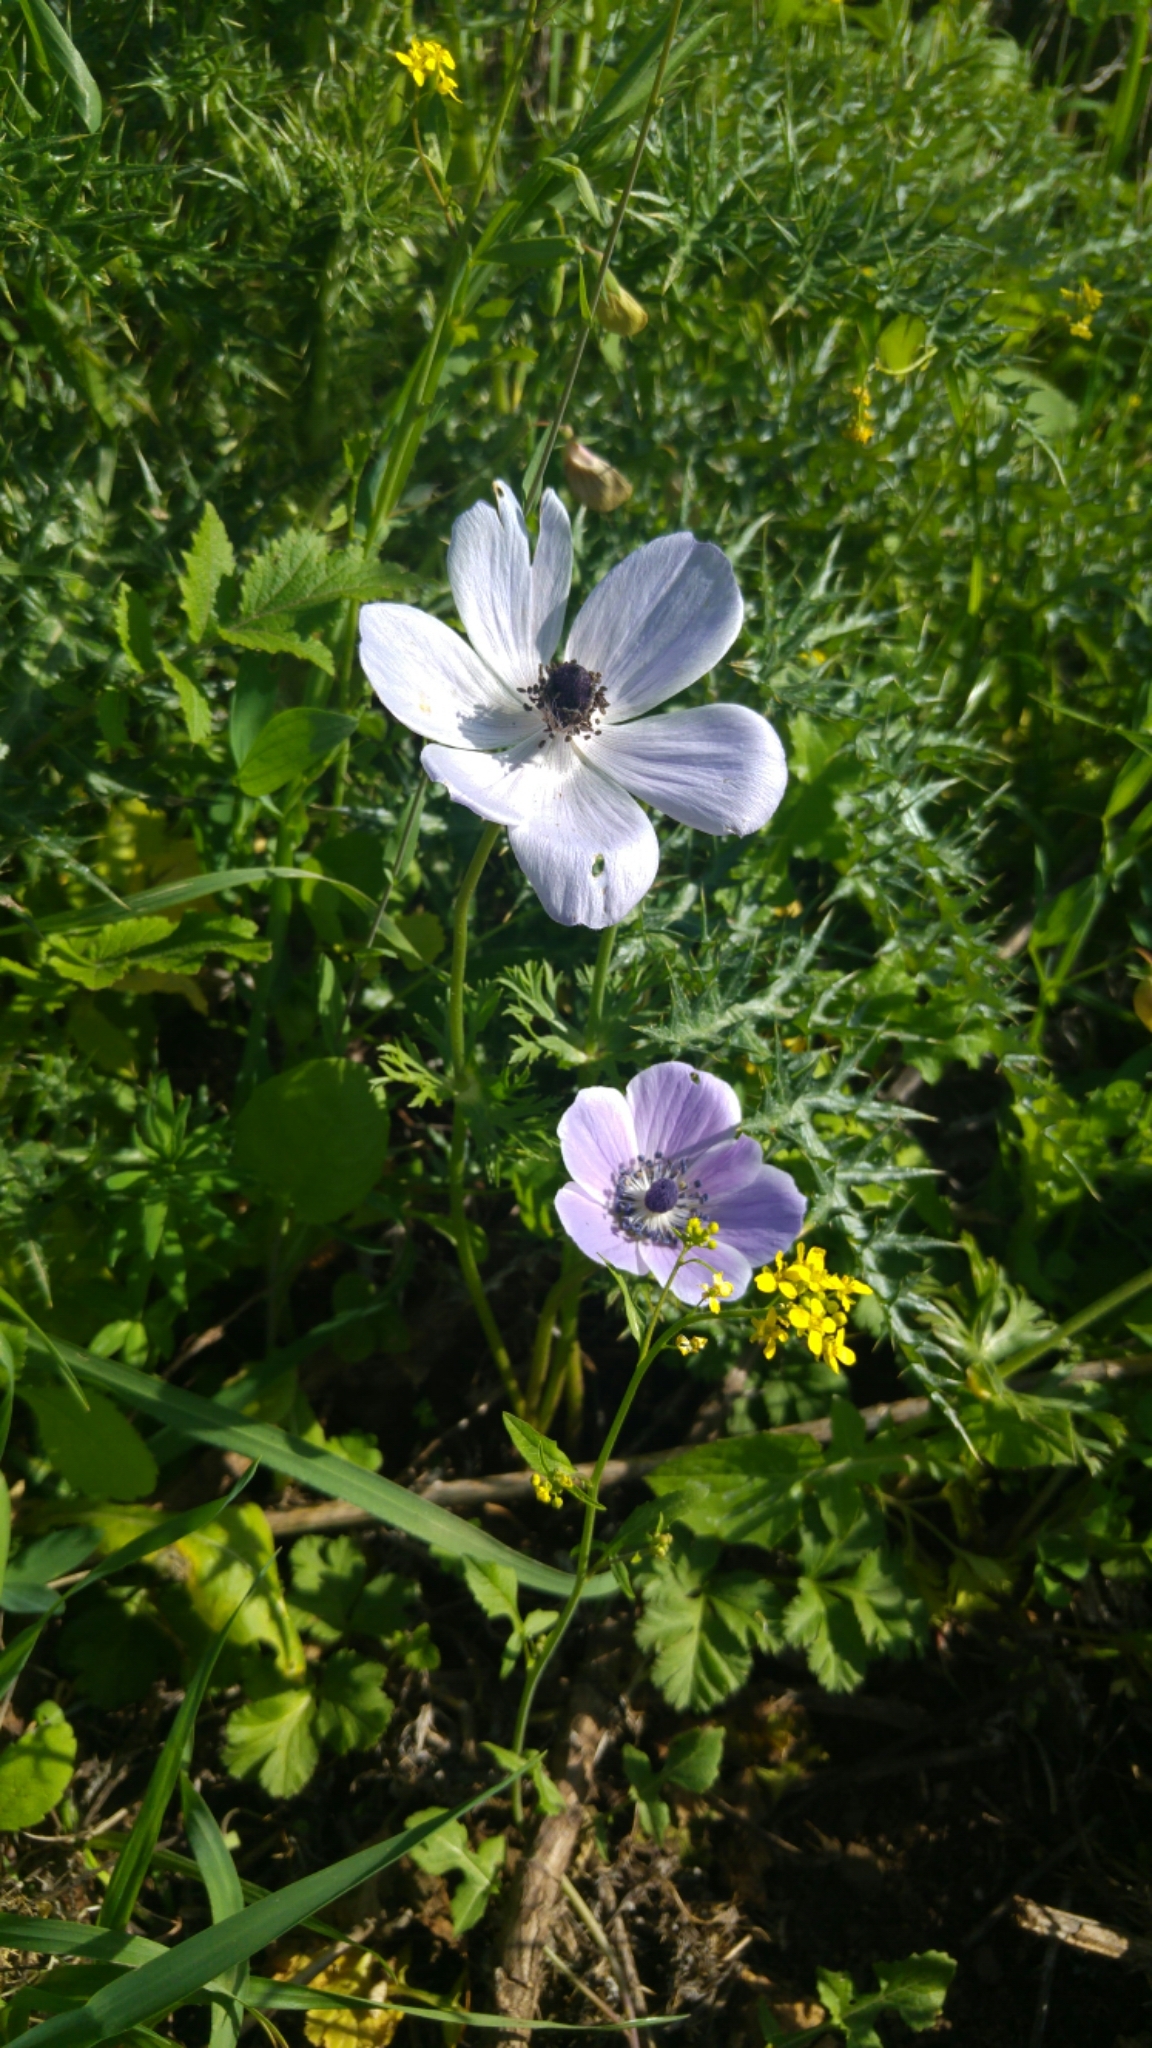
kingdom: Plantae
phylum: Tracheophyta
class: Magnoliopsida
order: Ranunculales
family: Ranunculaceae
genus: Anemone
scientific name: Anemone coronaria
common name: Poppy anemone
